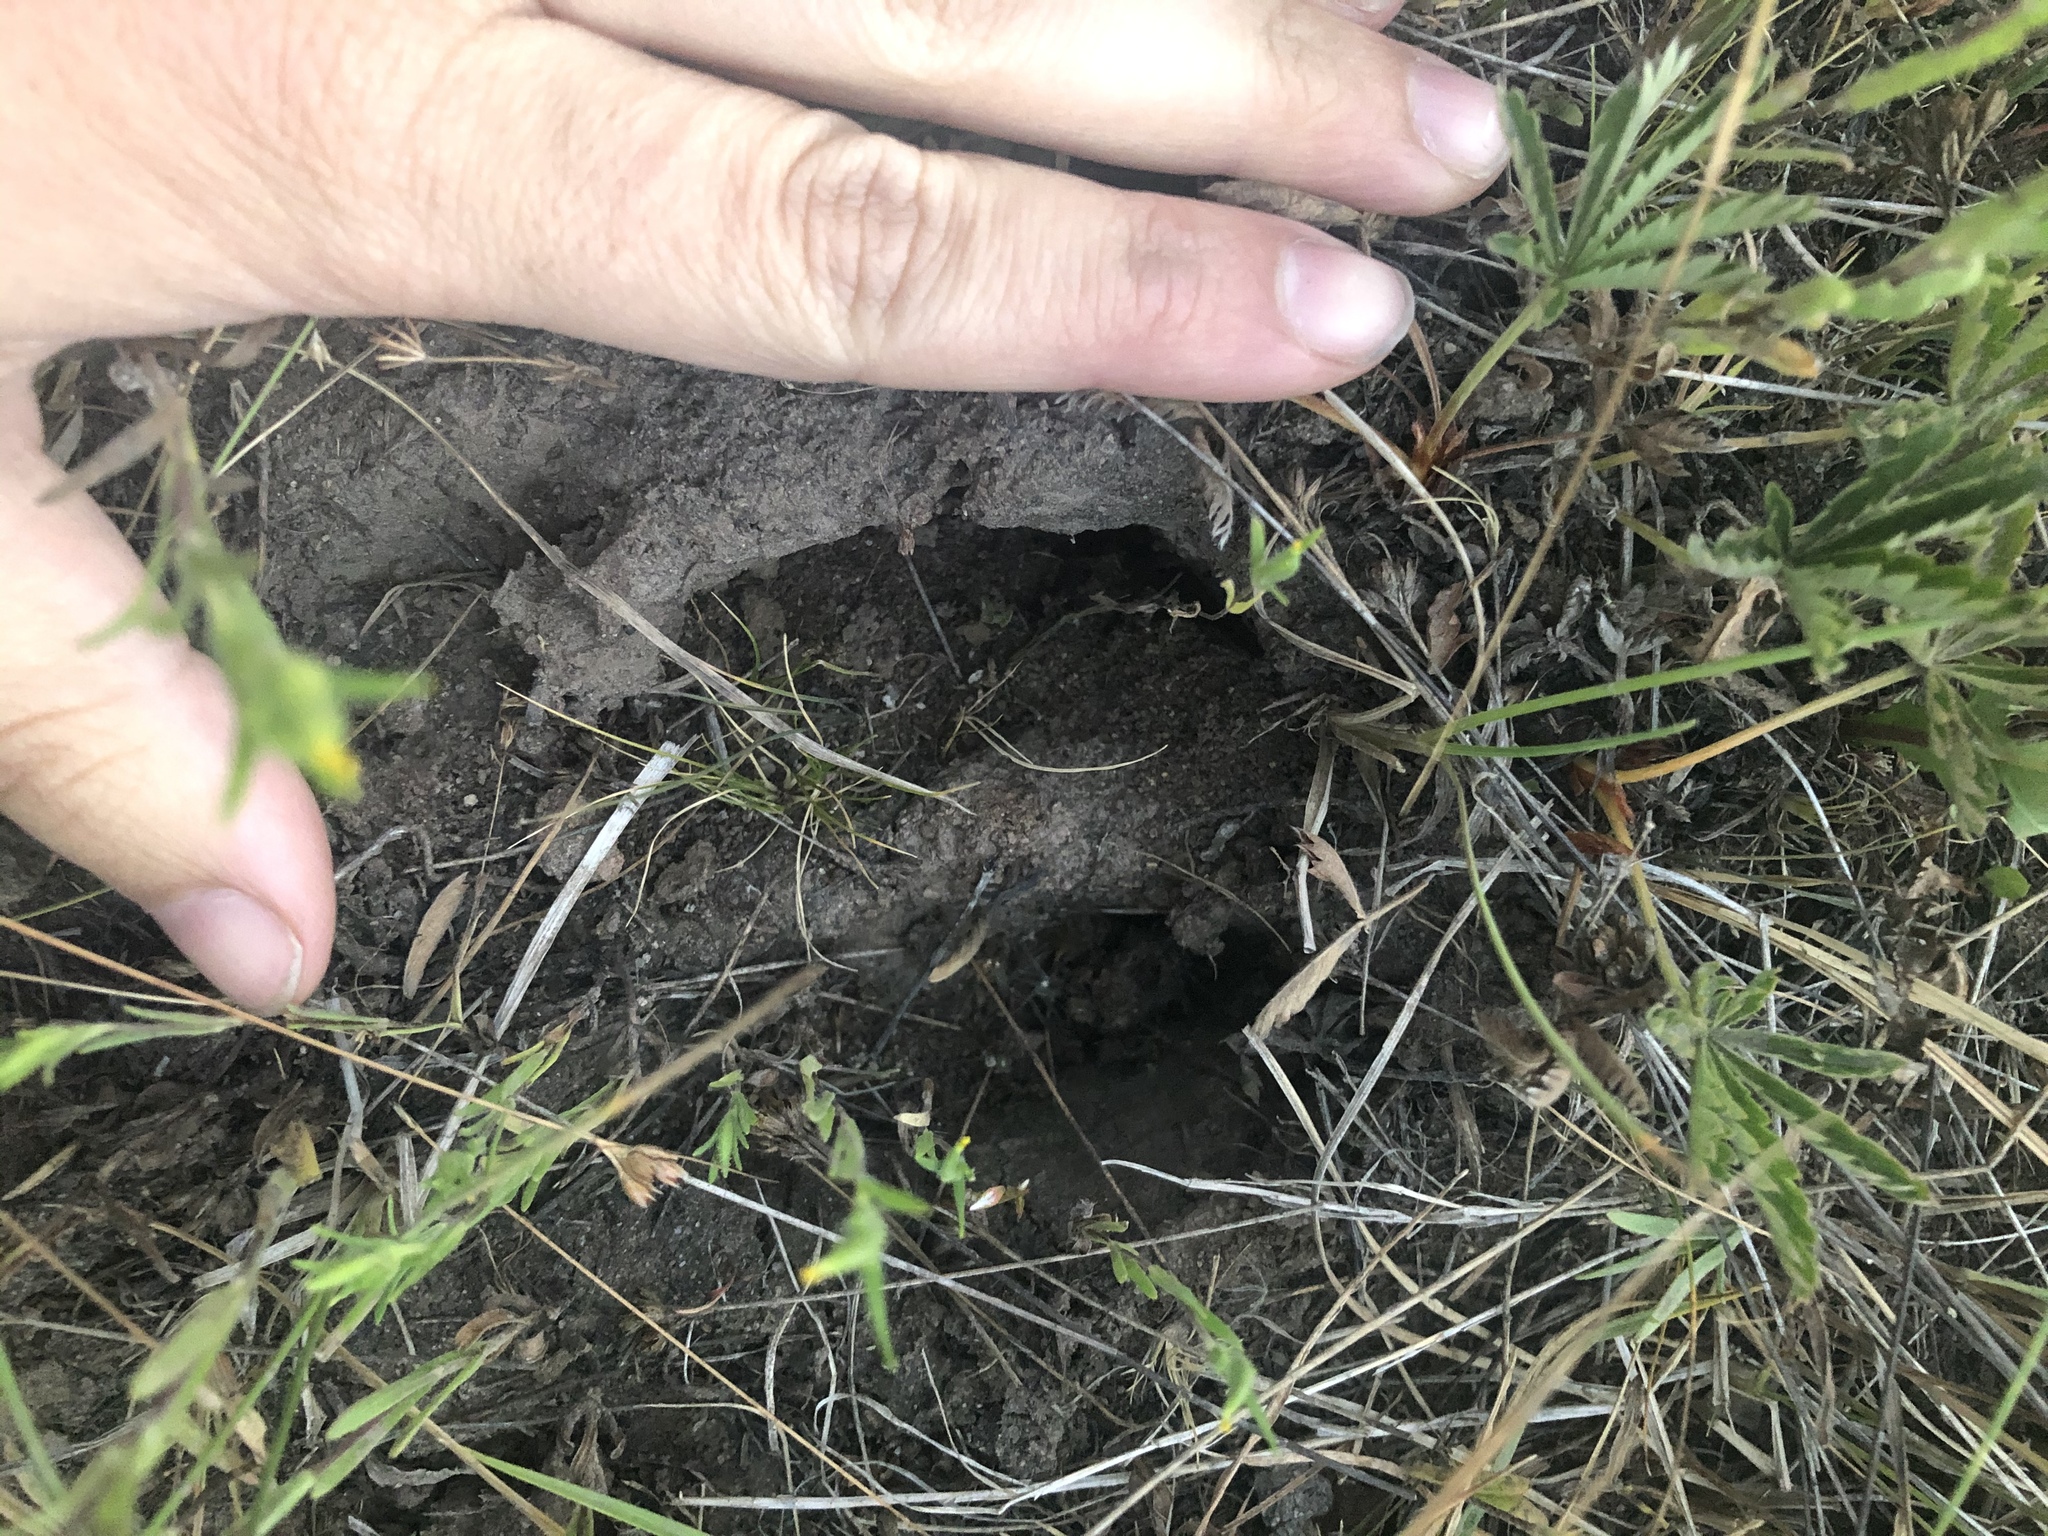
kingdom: Animalia
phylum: Chordata
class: Mammalia
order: Artiodactyla
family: Cervidae
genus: Alces
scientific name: Alces alces
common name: Moose
